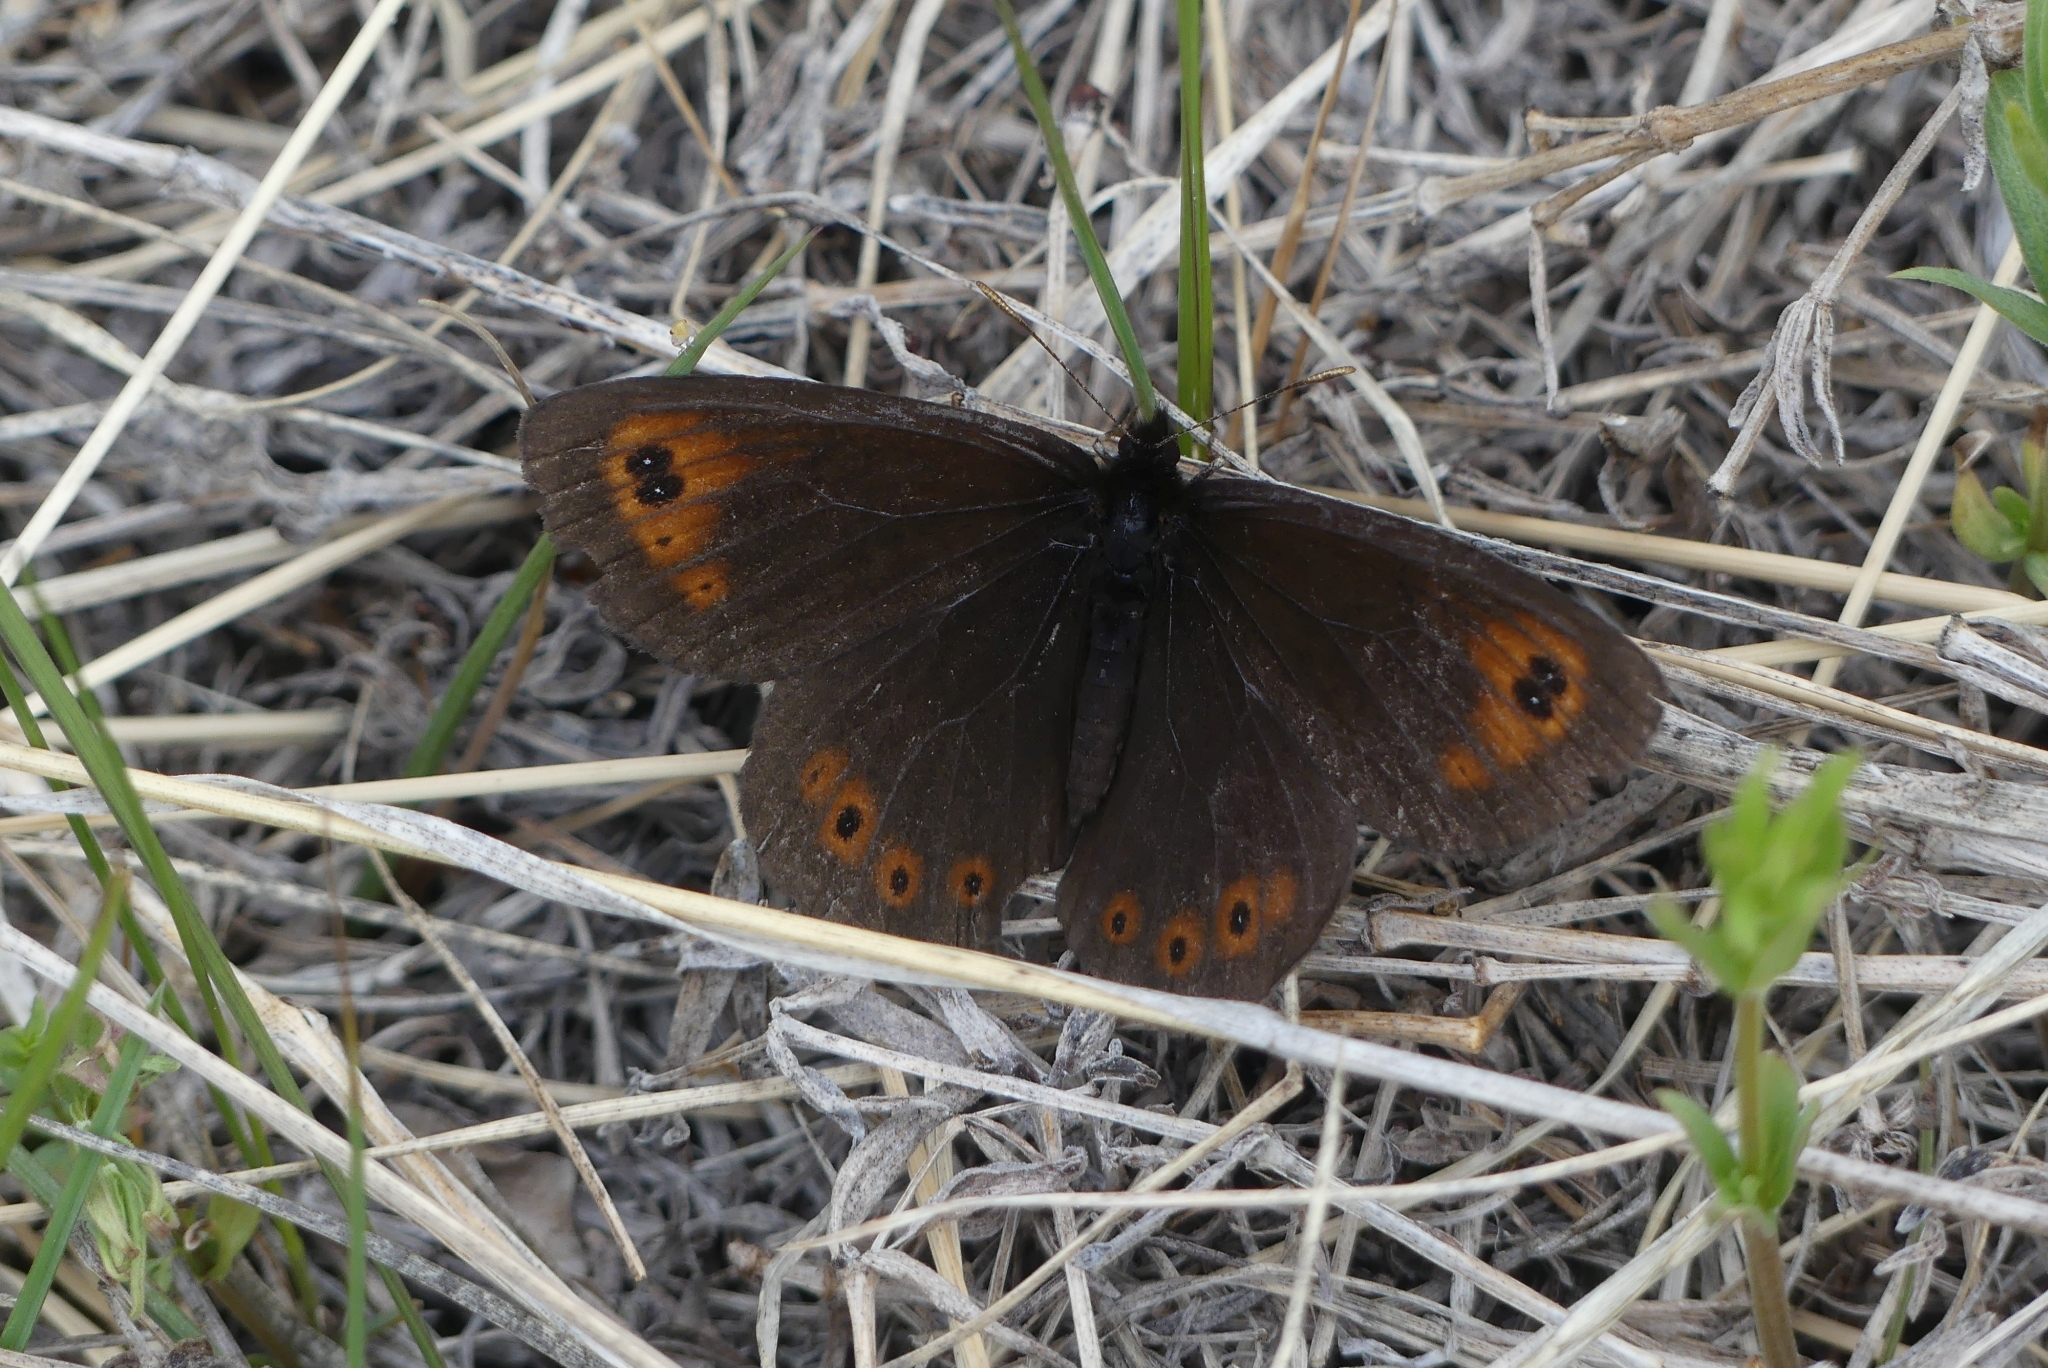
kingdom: Animalia
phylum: Arthropoda
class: Insecta
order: Lepidoptera
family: Nymphalidae
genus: Erebia
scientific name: Erebia epipsodea
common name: Common alpine
